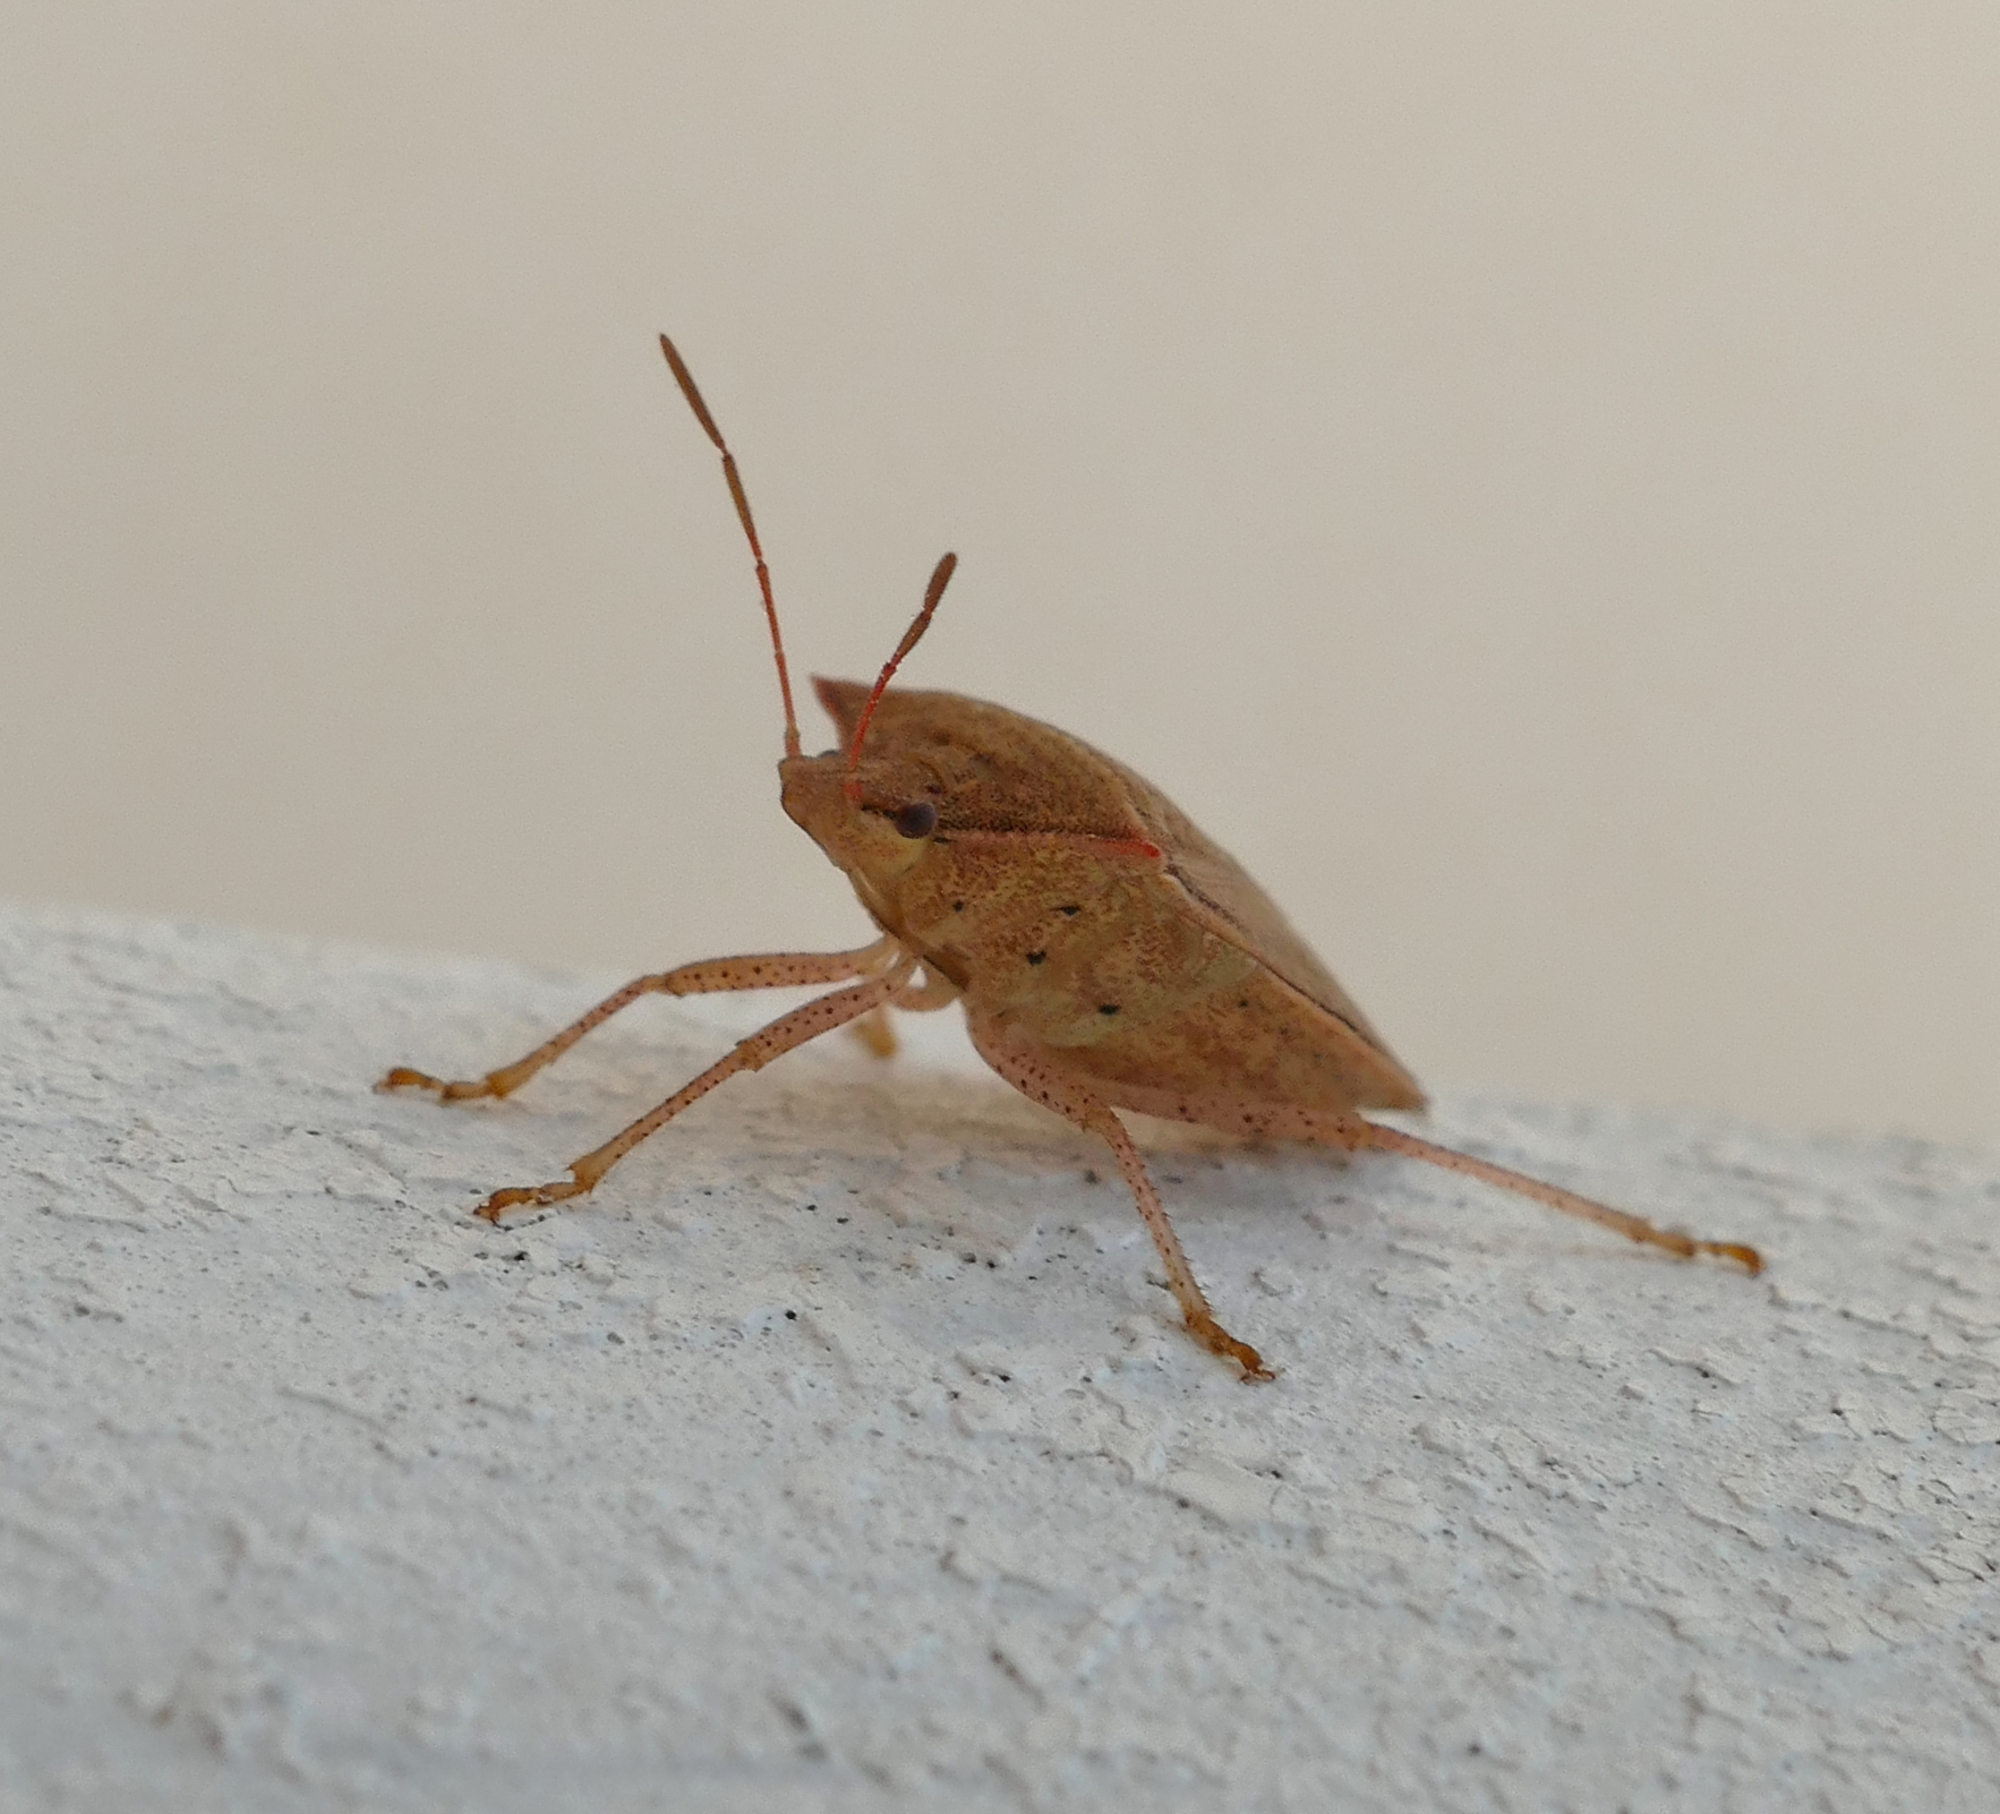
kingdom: Animalia
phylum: Arthropoda
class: Insecta
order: Hemiptera
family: Pentatomidae
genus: Euschistus
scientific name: Euschistus ictericus
